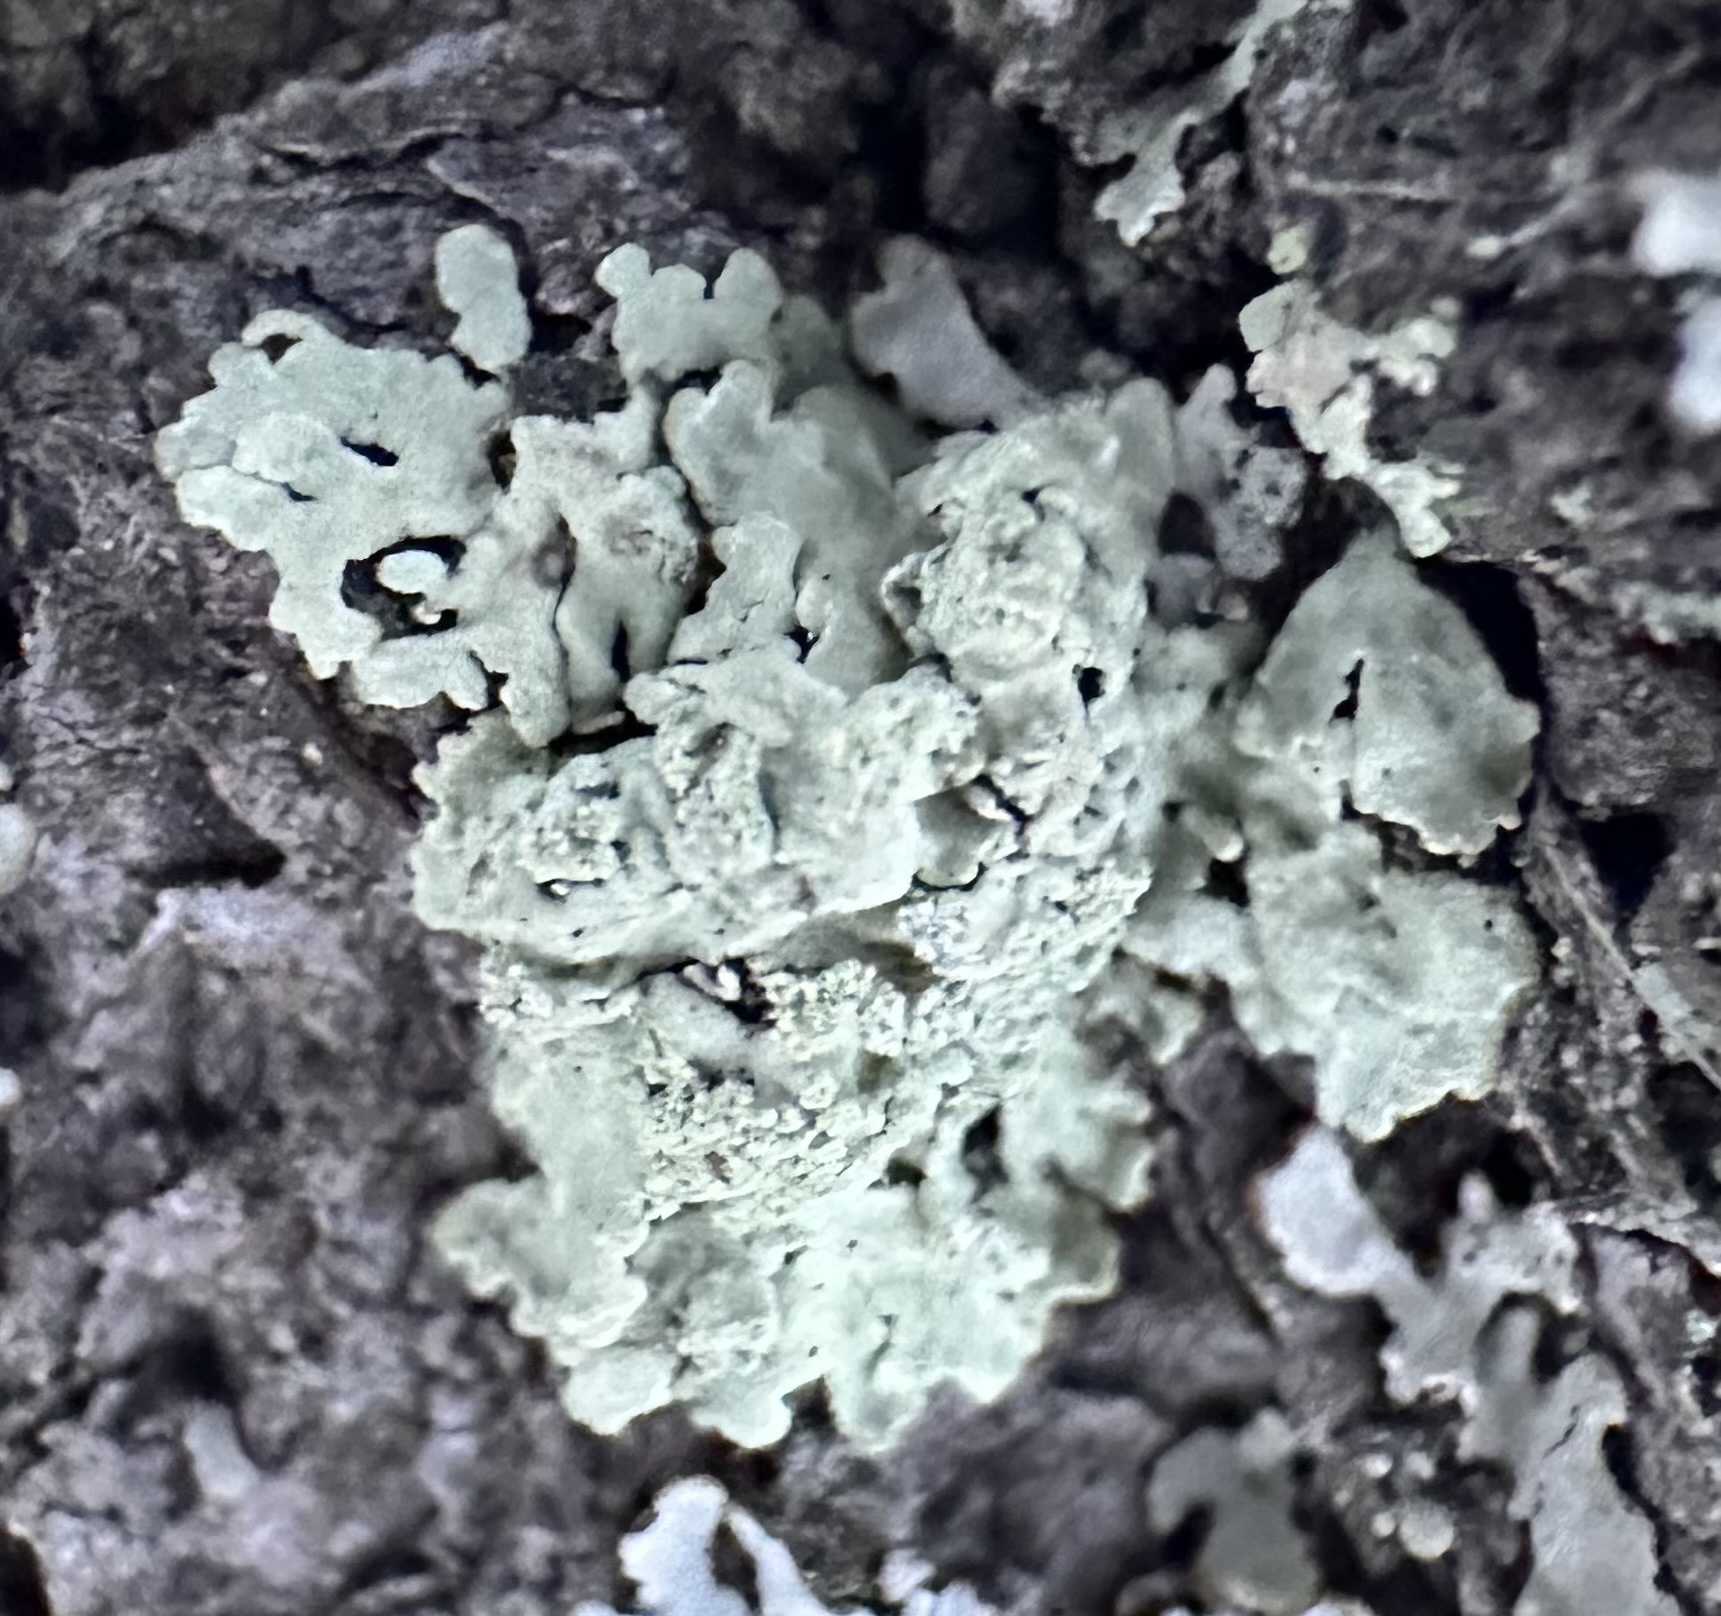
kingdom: Fungi
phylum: Ascomycota
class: Lecanoromycetes
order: Lecanorales
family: Parmeliaceae
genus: Parmeliopsis
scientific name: Parmeliopsis ambigua
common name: Green starburst lichen
